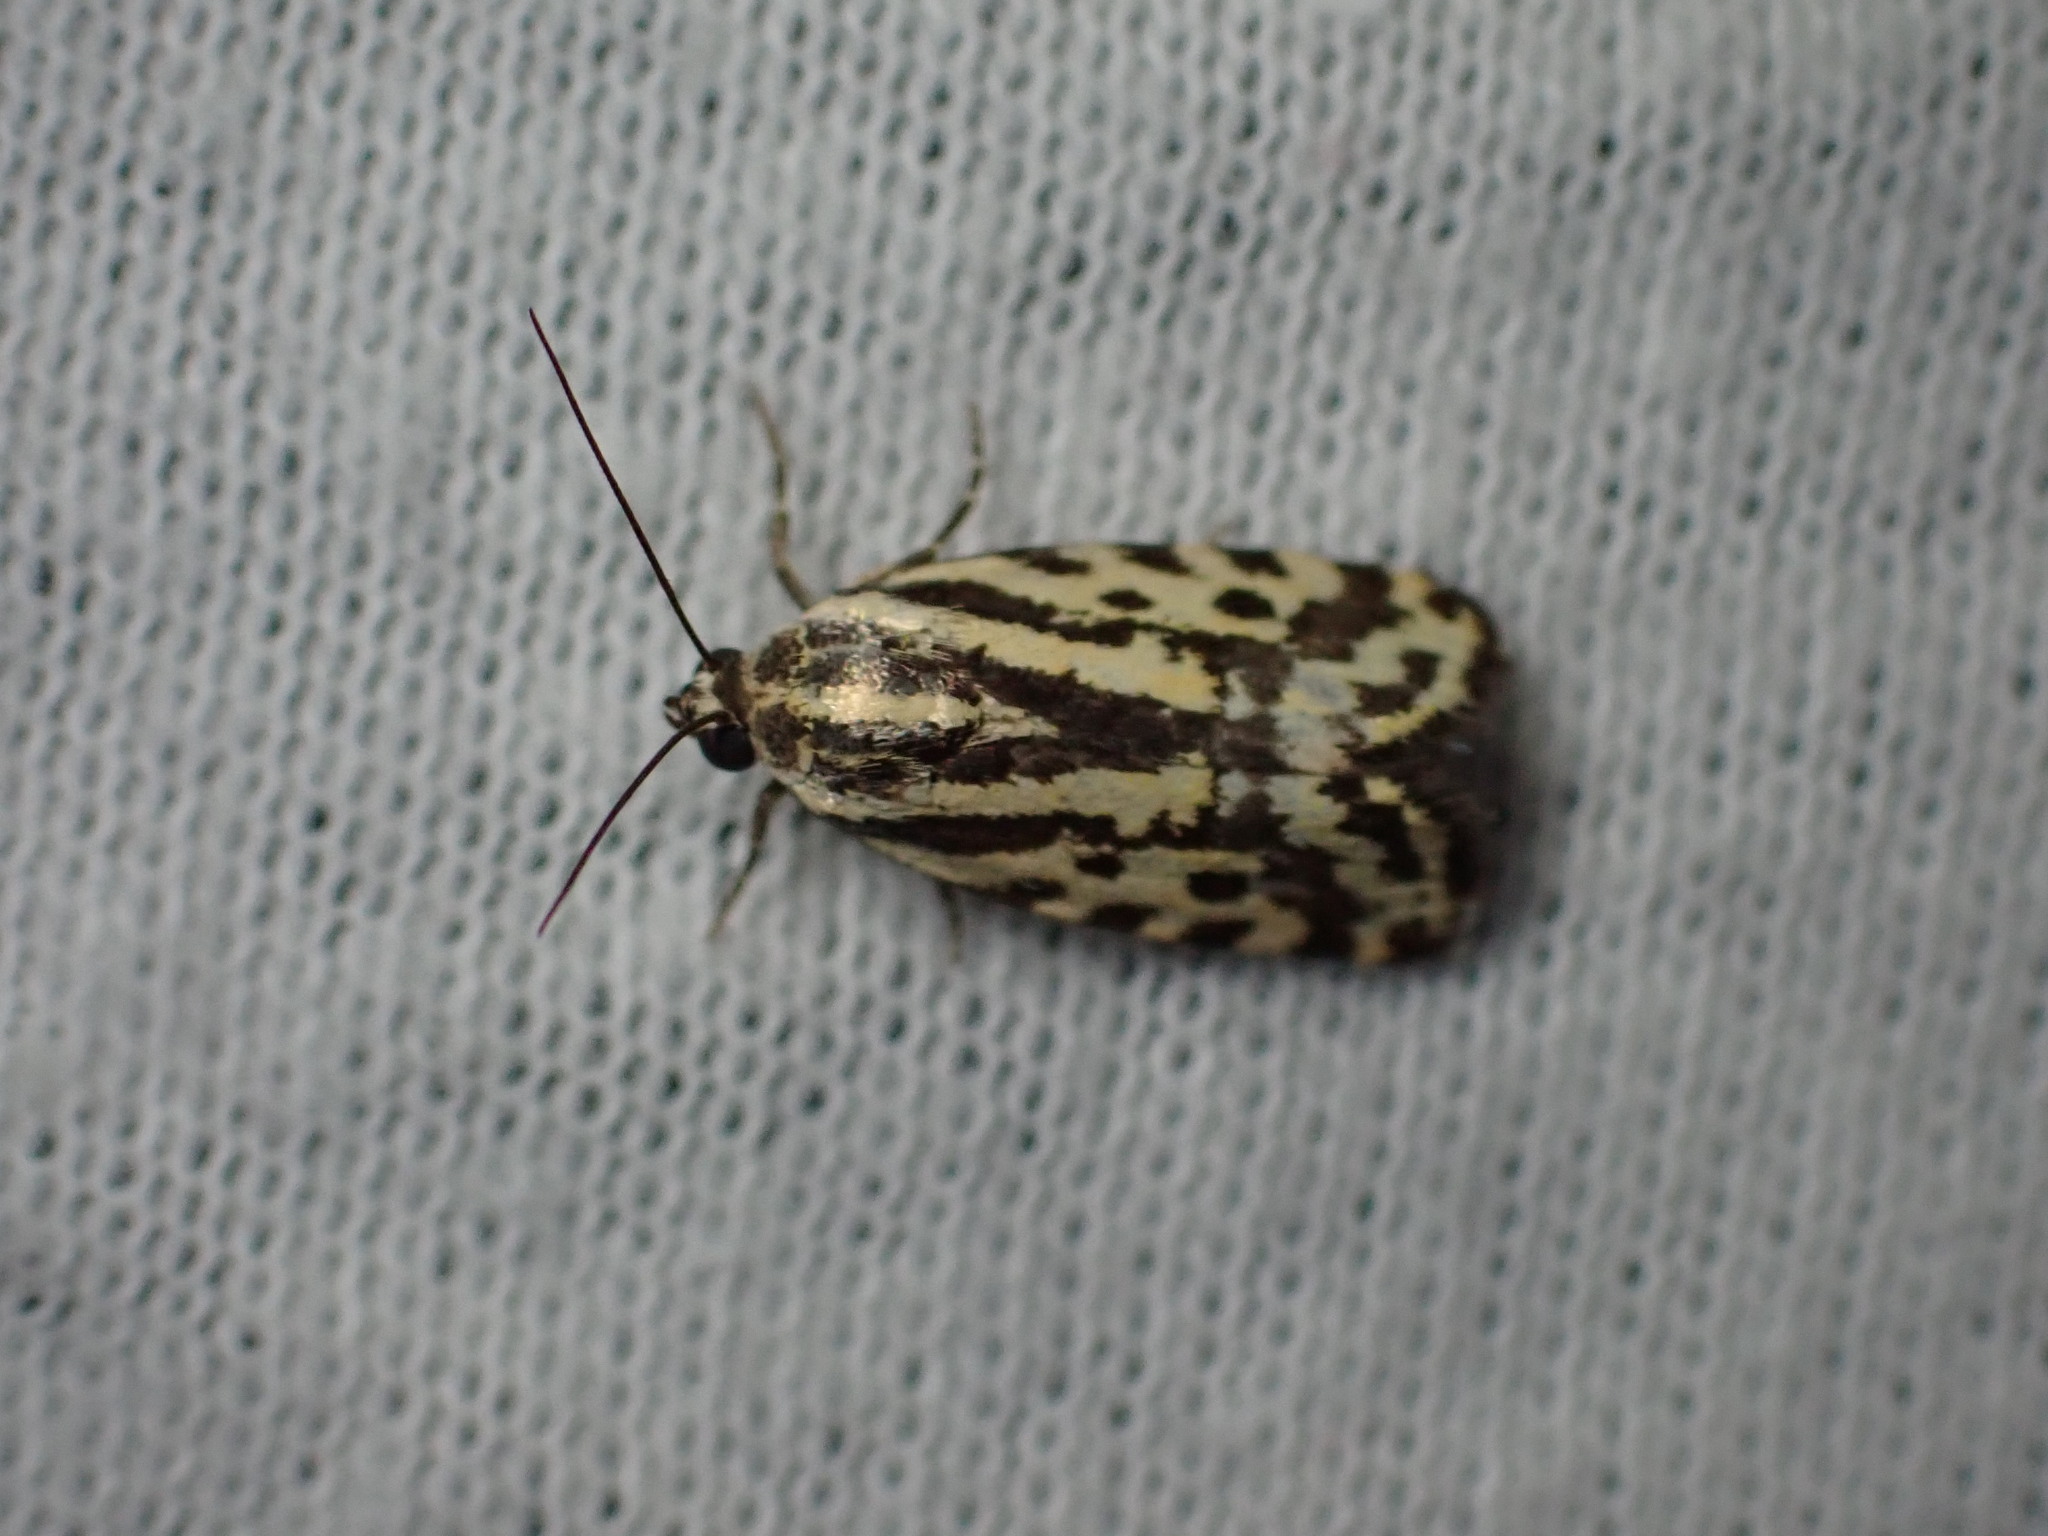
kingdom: Animalia
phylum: Arthropoda
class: Insecta
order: Lepidoptera
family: Noctuidae
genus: Acontia
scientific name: Acontia trabealis
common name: Spotted sulphur
